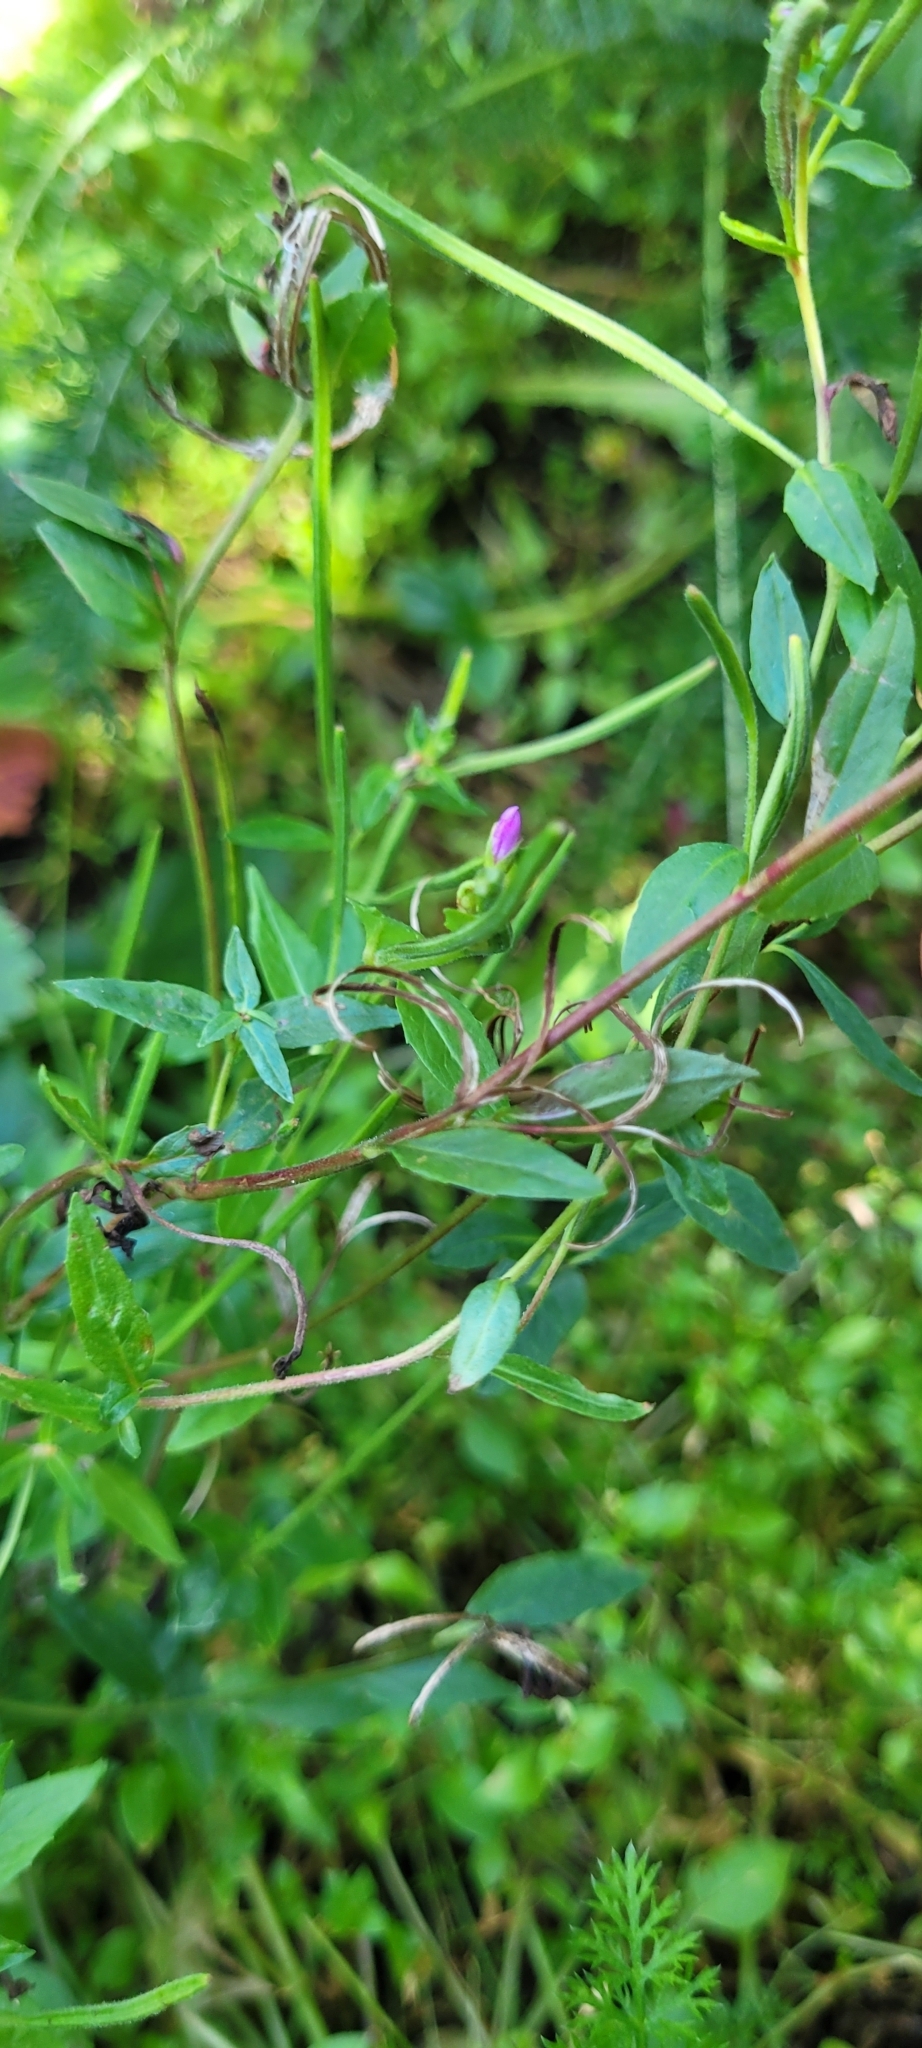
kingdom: Plantae
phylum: Tracheophyta
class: Magnoliopsida
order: Myrtales
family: Onagraceae
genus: Epilobium
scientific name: Epilobium ciliatum
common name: American willowherb
